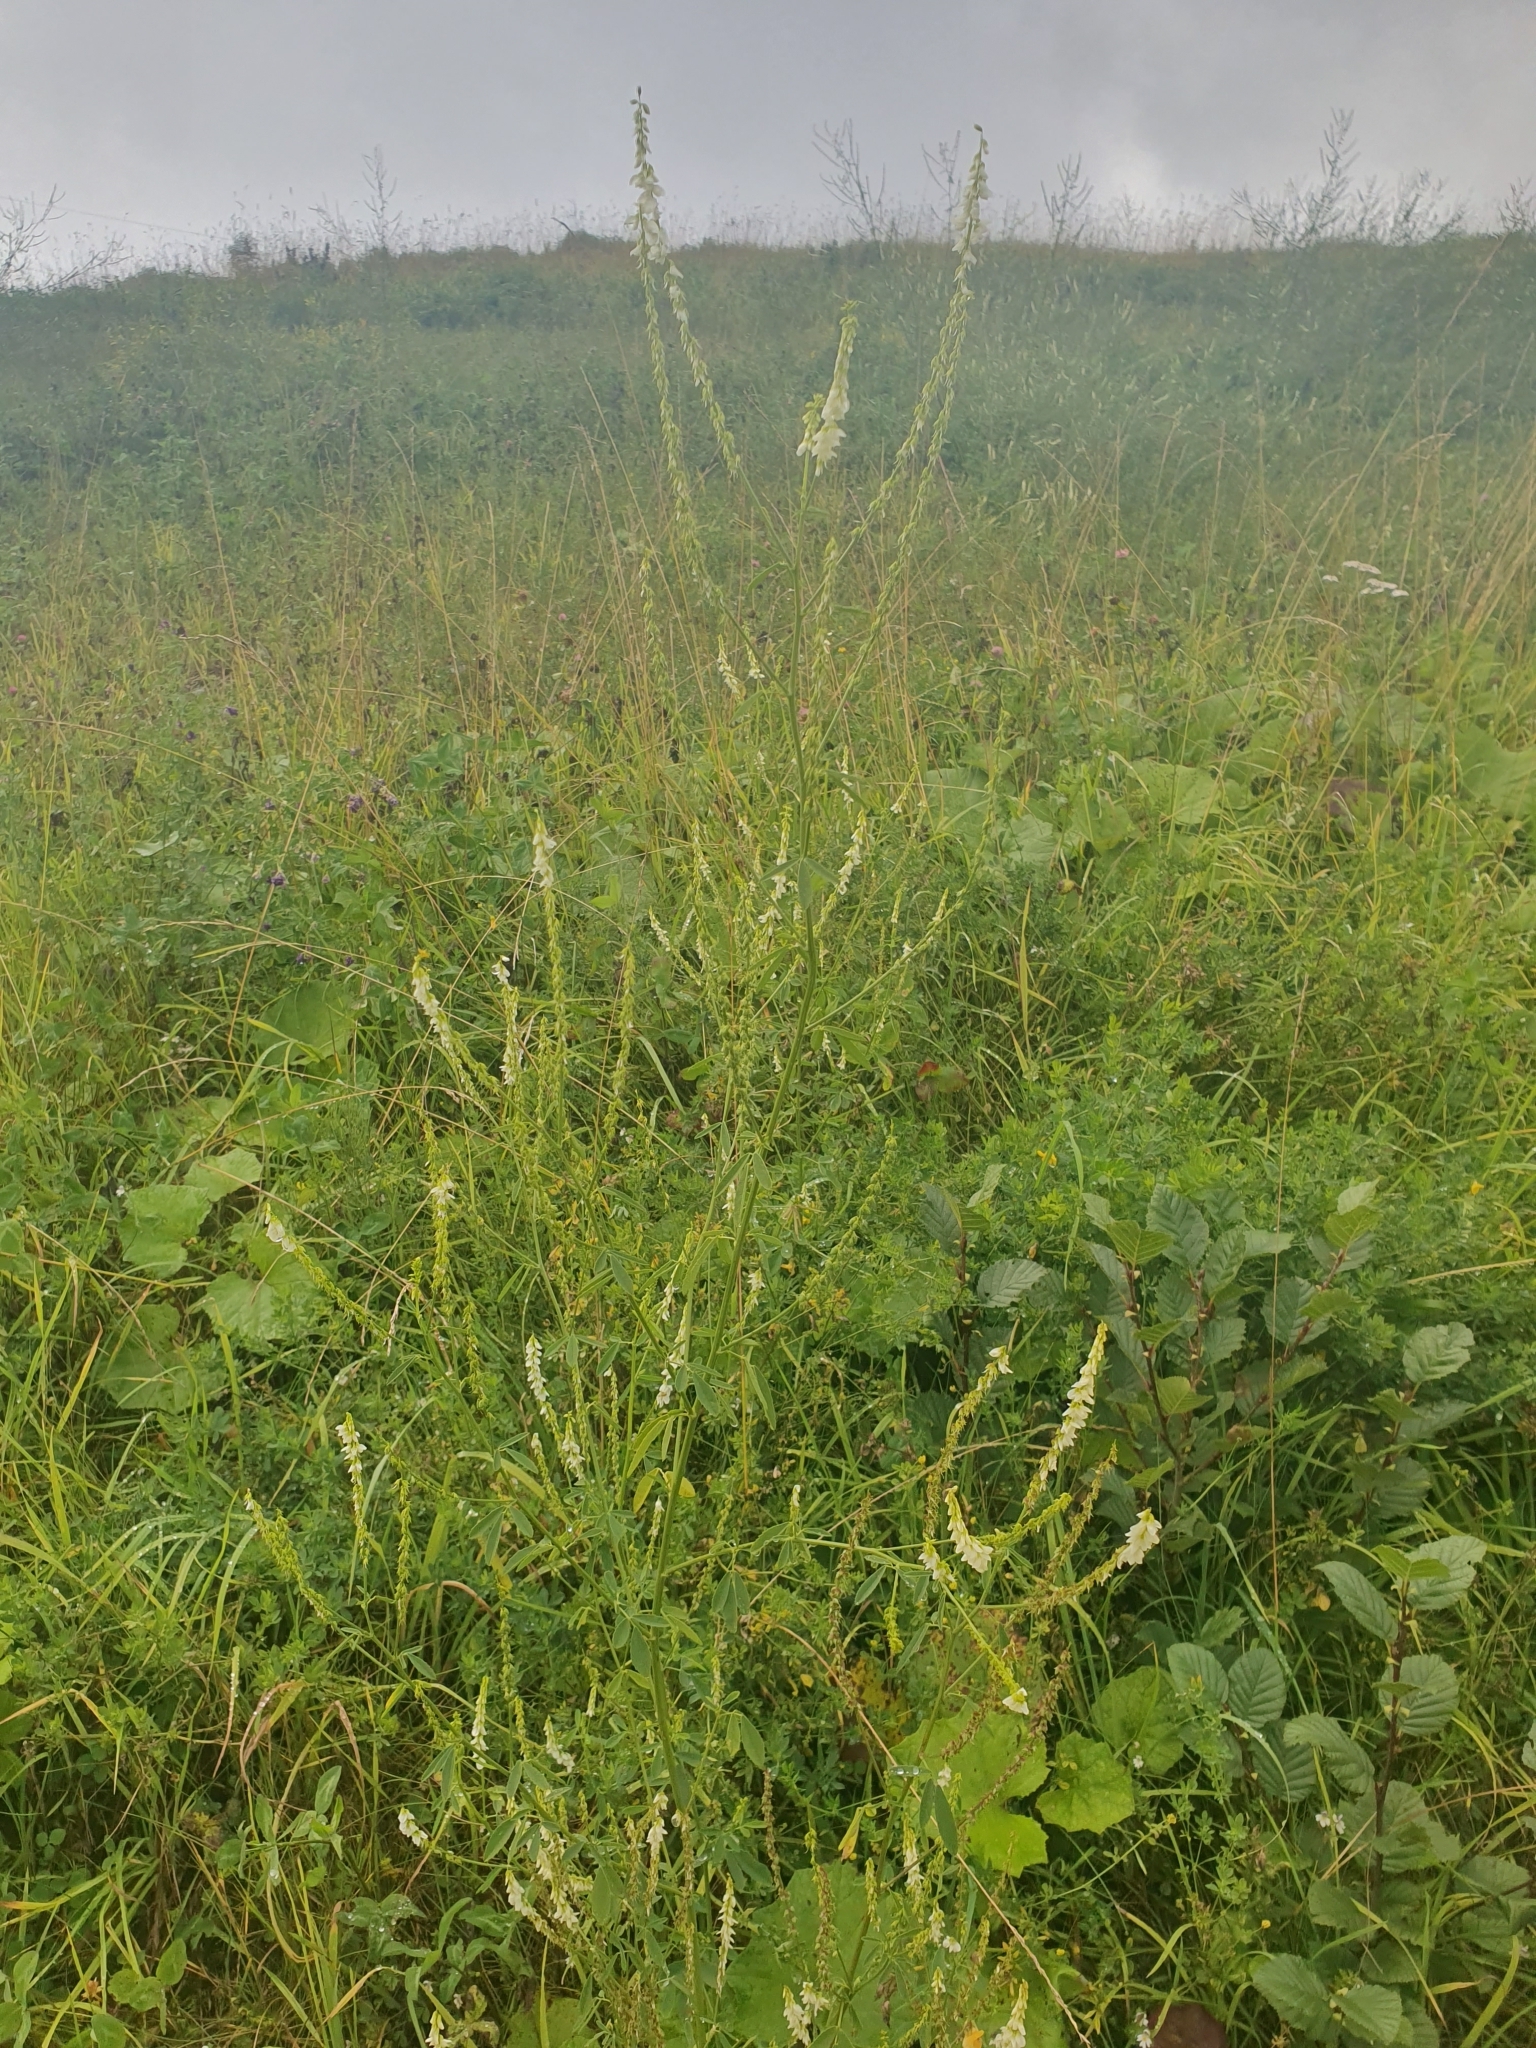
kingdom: Plantae
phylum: Tracheophyta
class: Magnoliopsida
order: Fabales
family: Fabaceae
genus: Melilotus
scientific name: Melilotus albus
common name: White melilot
